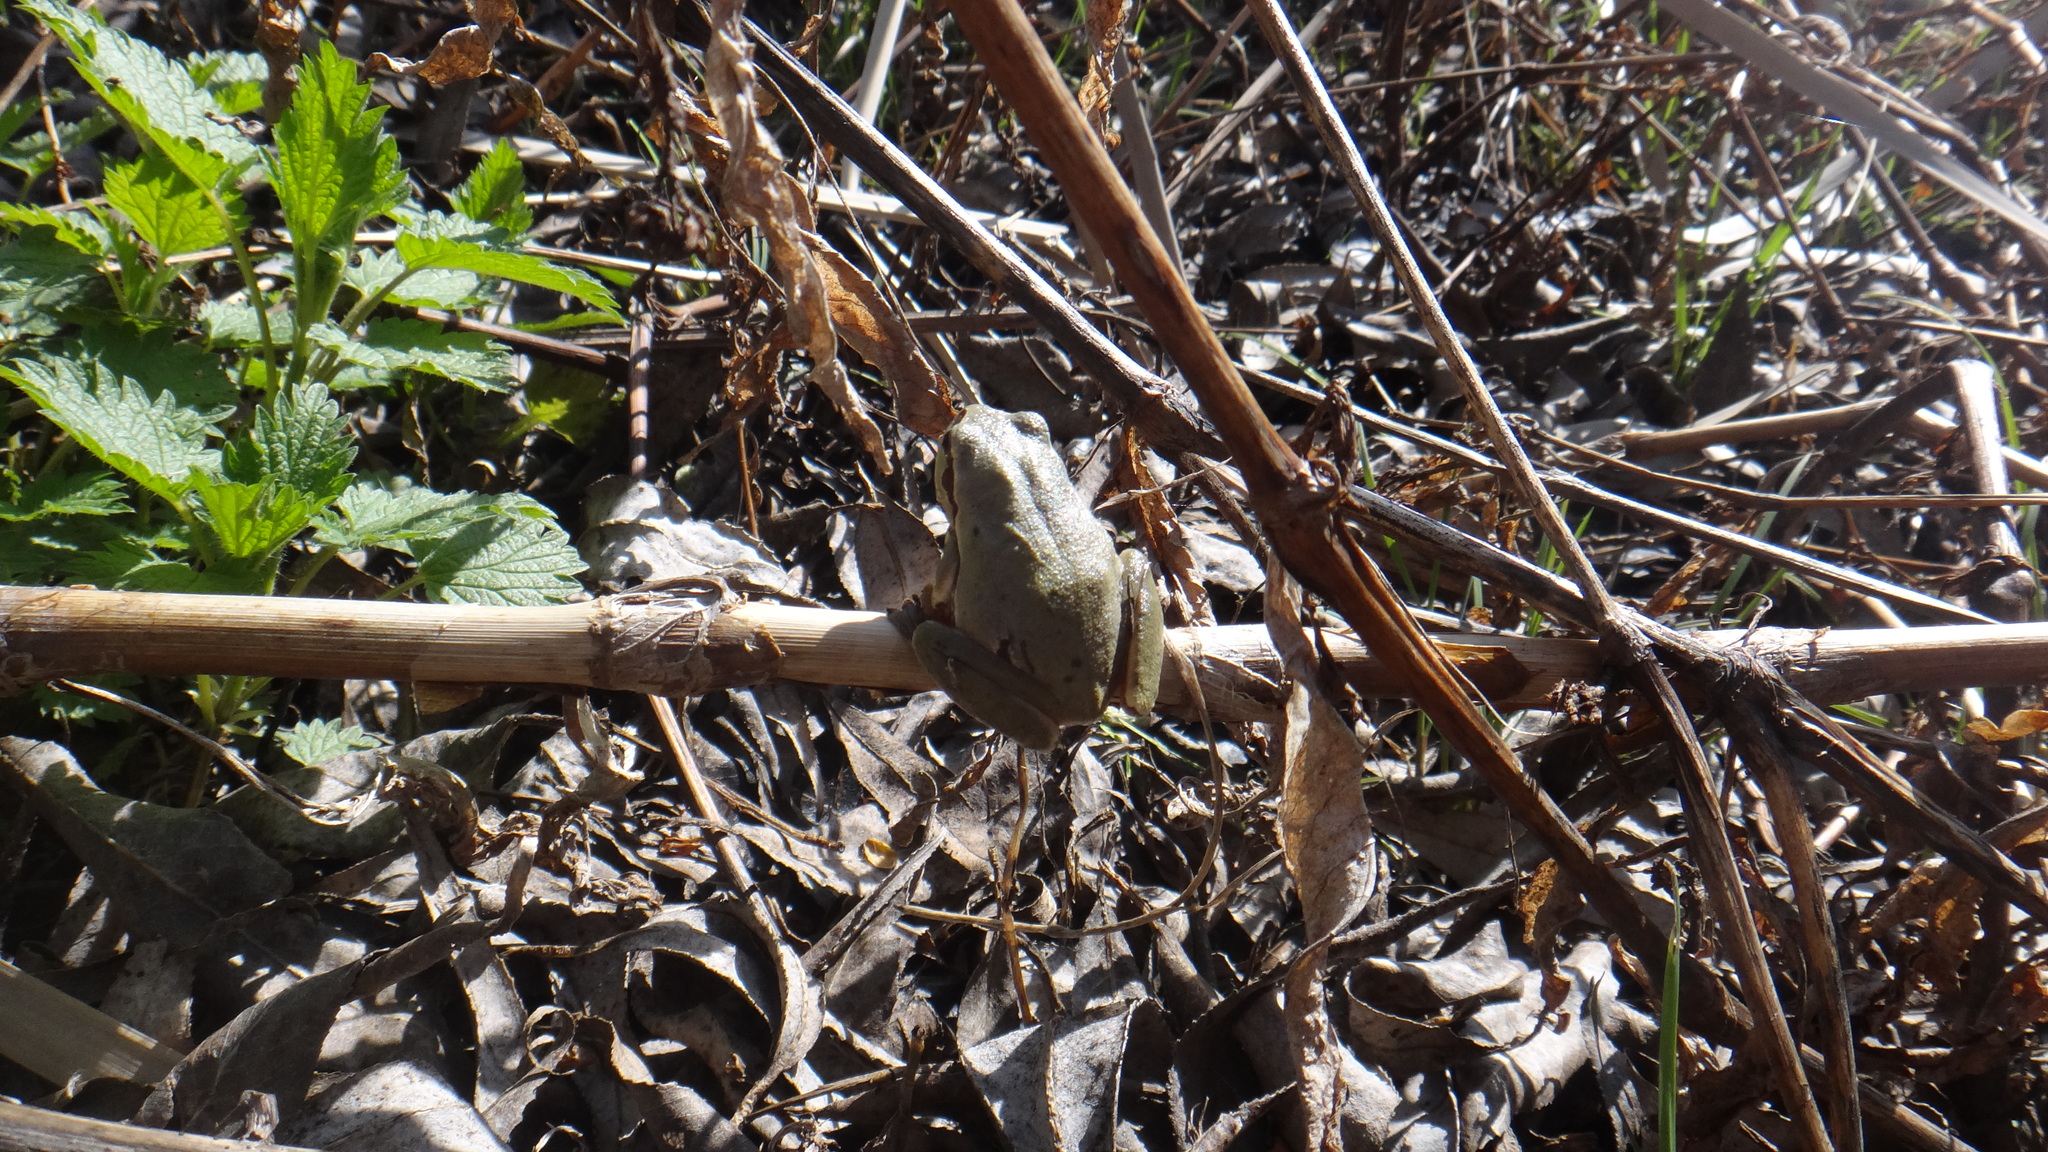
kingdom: Animalia
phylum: Chordata
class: Amphibia
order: Anura
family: Hylidae
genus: Hyla
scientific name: Hyla orientalis
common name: Caucasian treefrog
